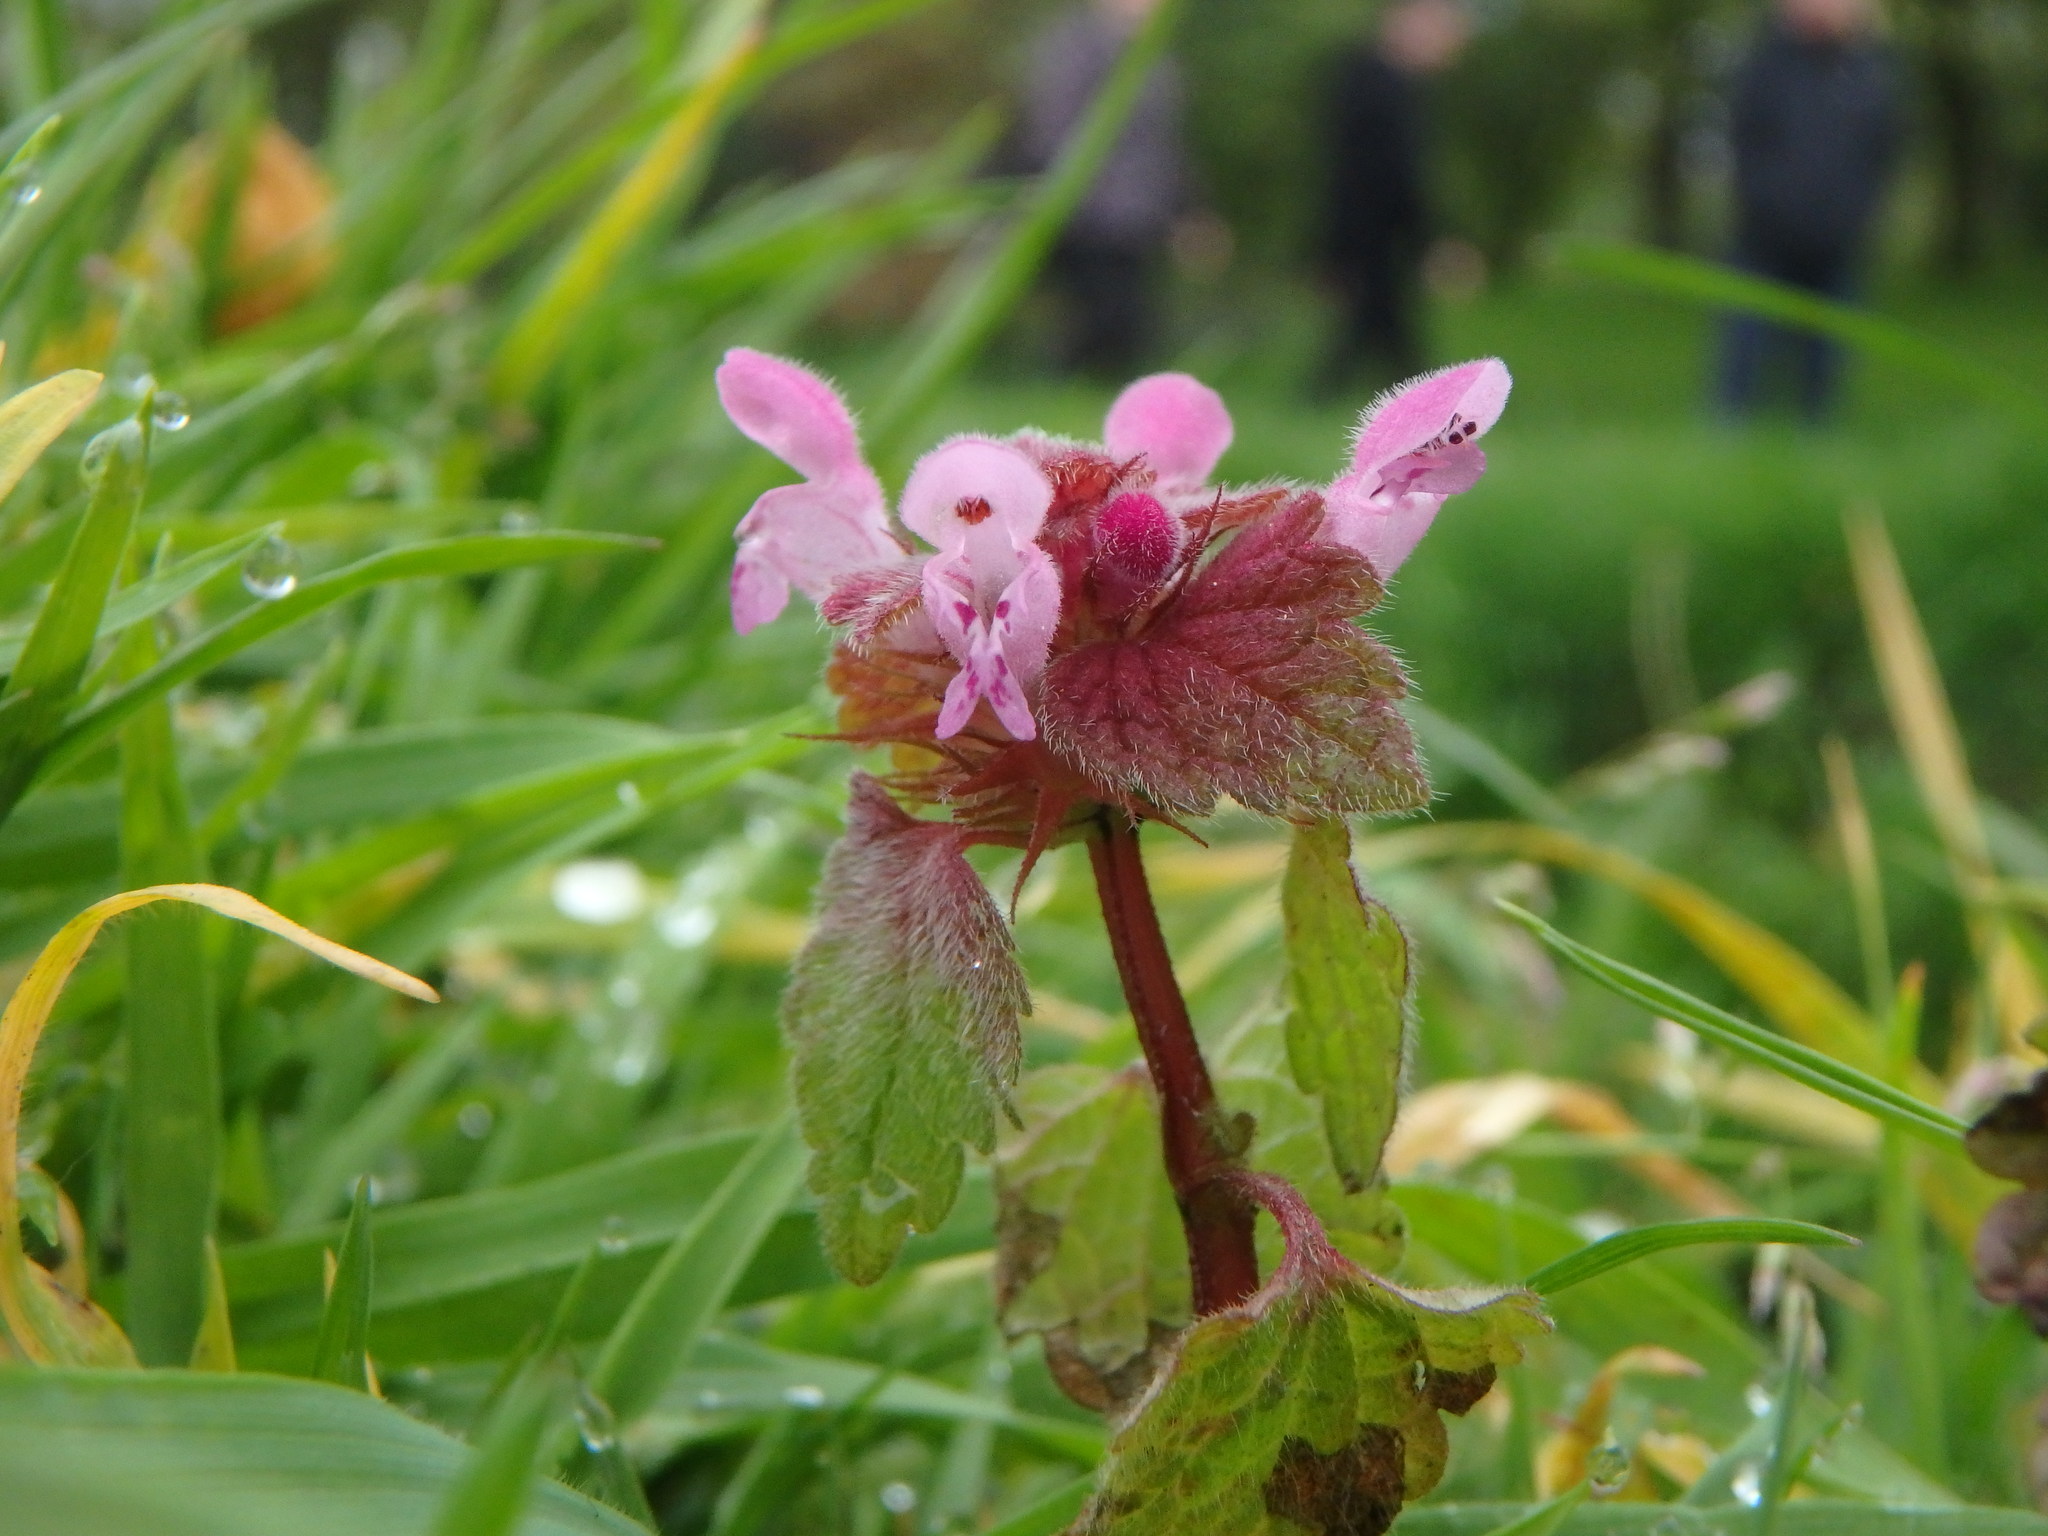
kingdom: Plantae
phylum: Tracheophyta
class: Magnoliopsida
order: Lamiales
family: Lamiaceae
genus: Lamium
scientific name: Lamium purpureum
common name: Red dead-nettle
